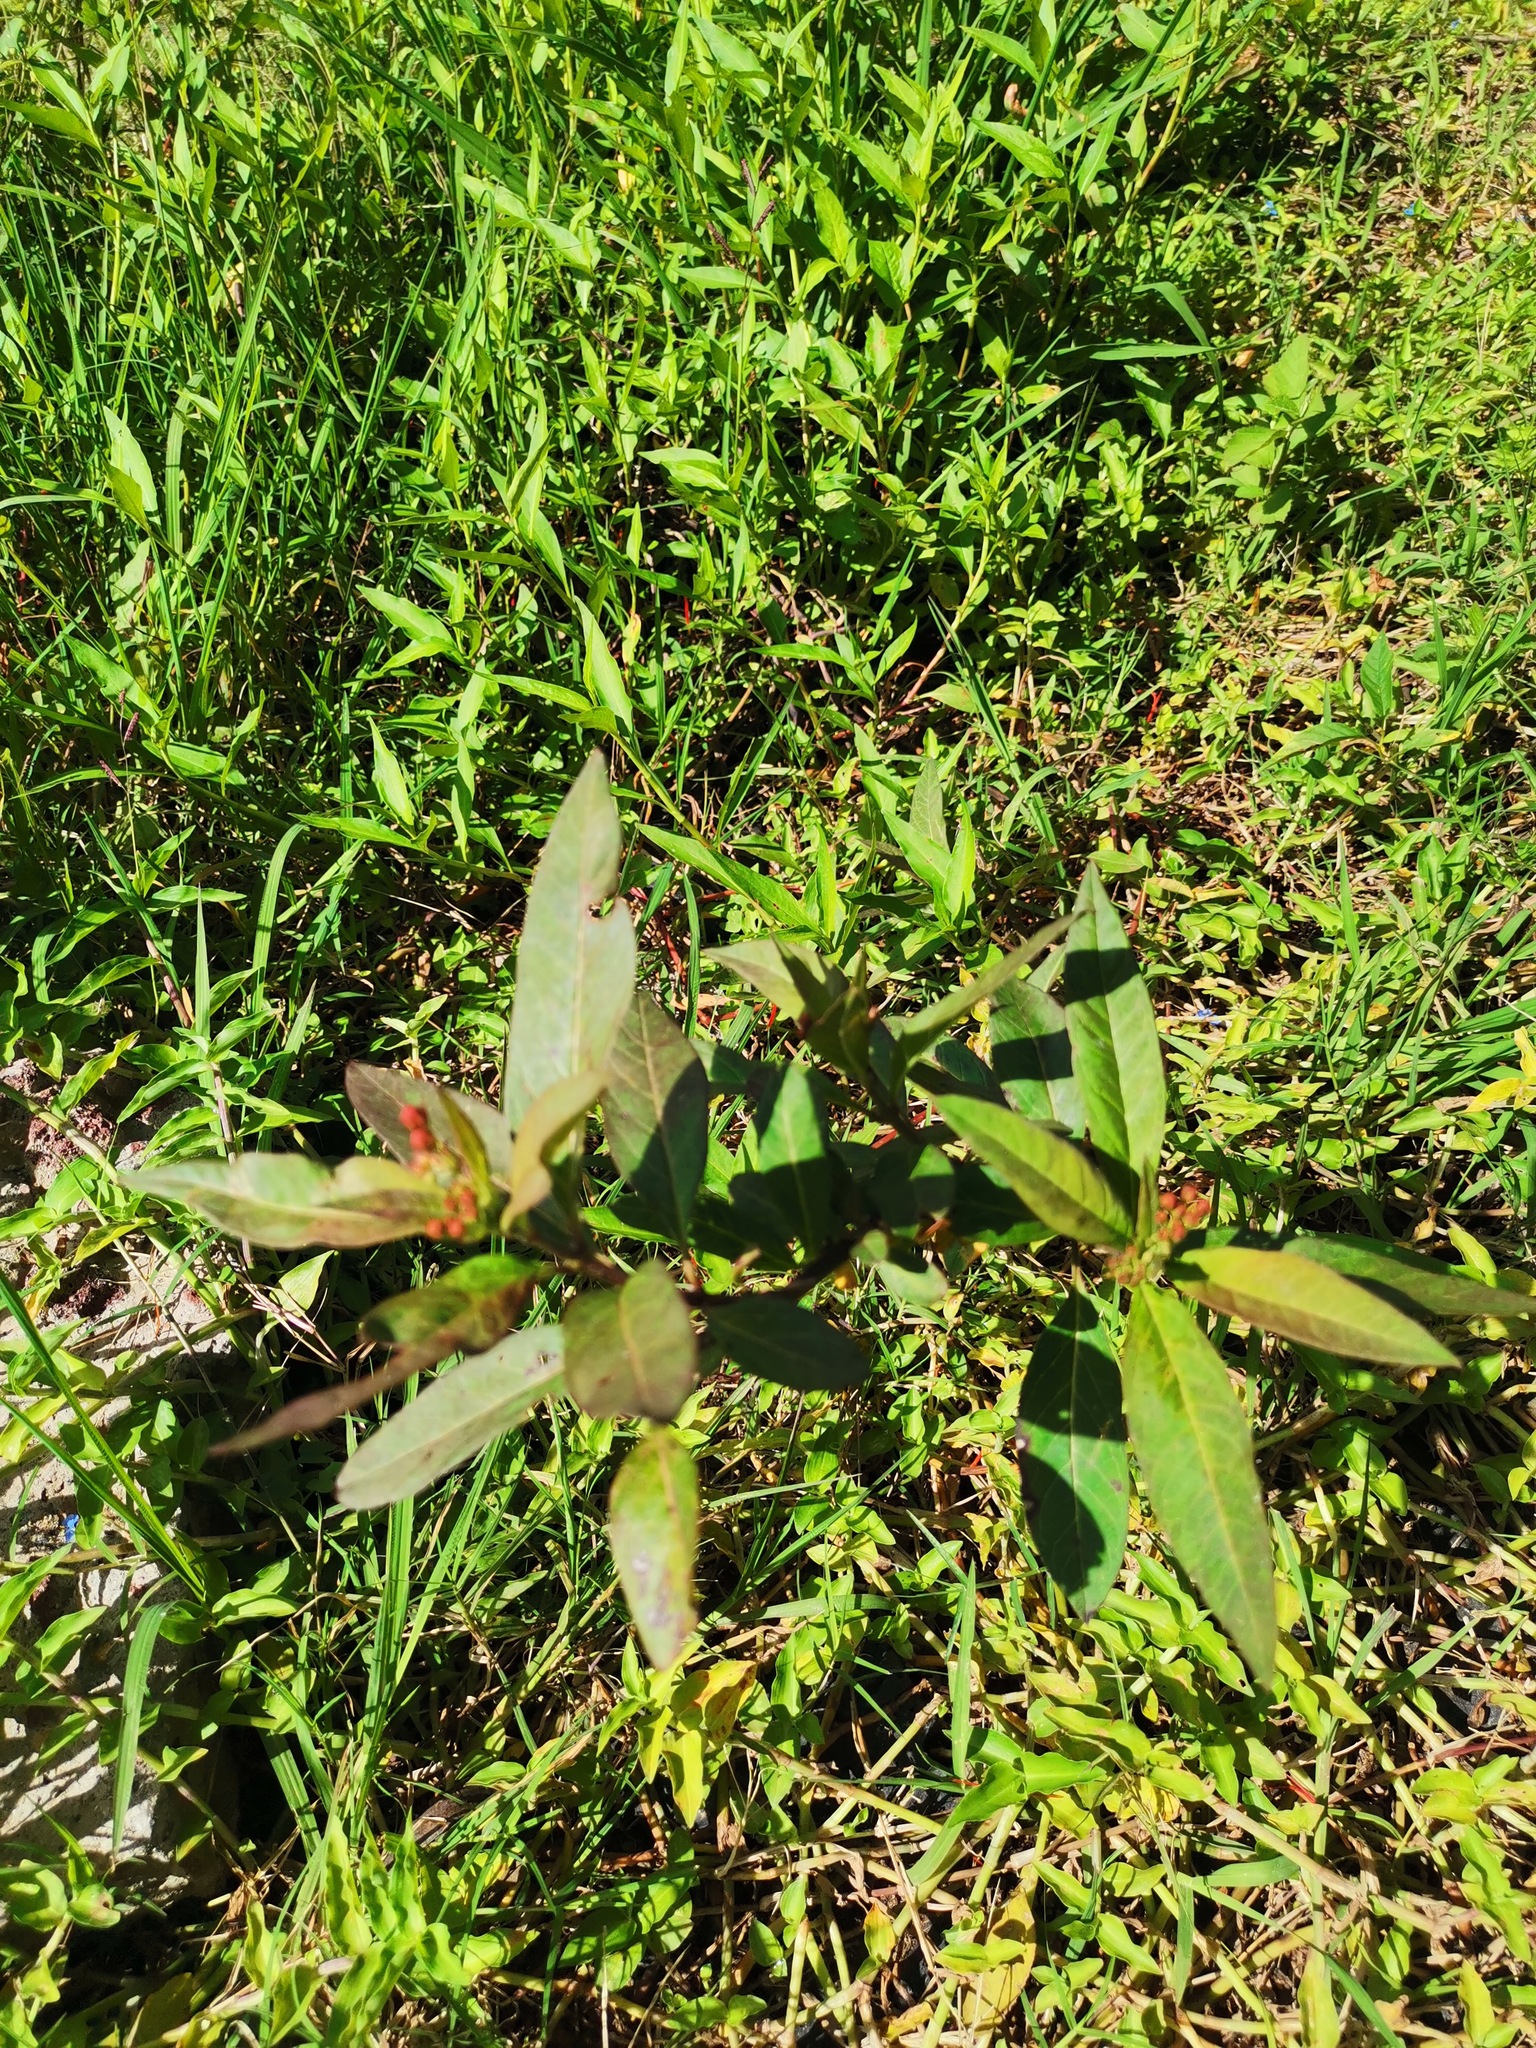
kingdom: Plantae
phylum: Tracheophyta
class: Magnoliopsida
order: Gentianales
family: Apocynaceae
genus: Asclepias
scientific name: Asclepias curassavica
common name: Bloodflower
